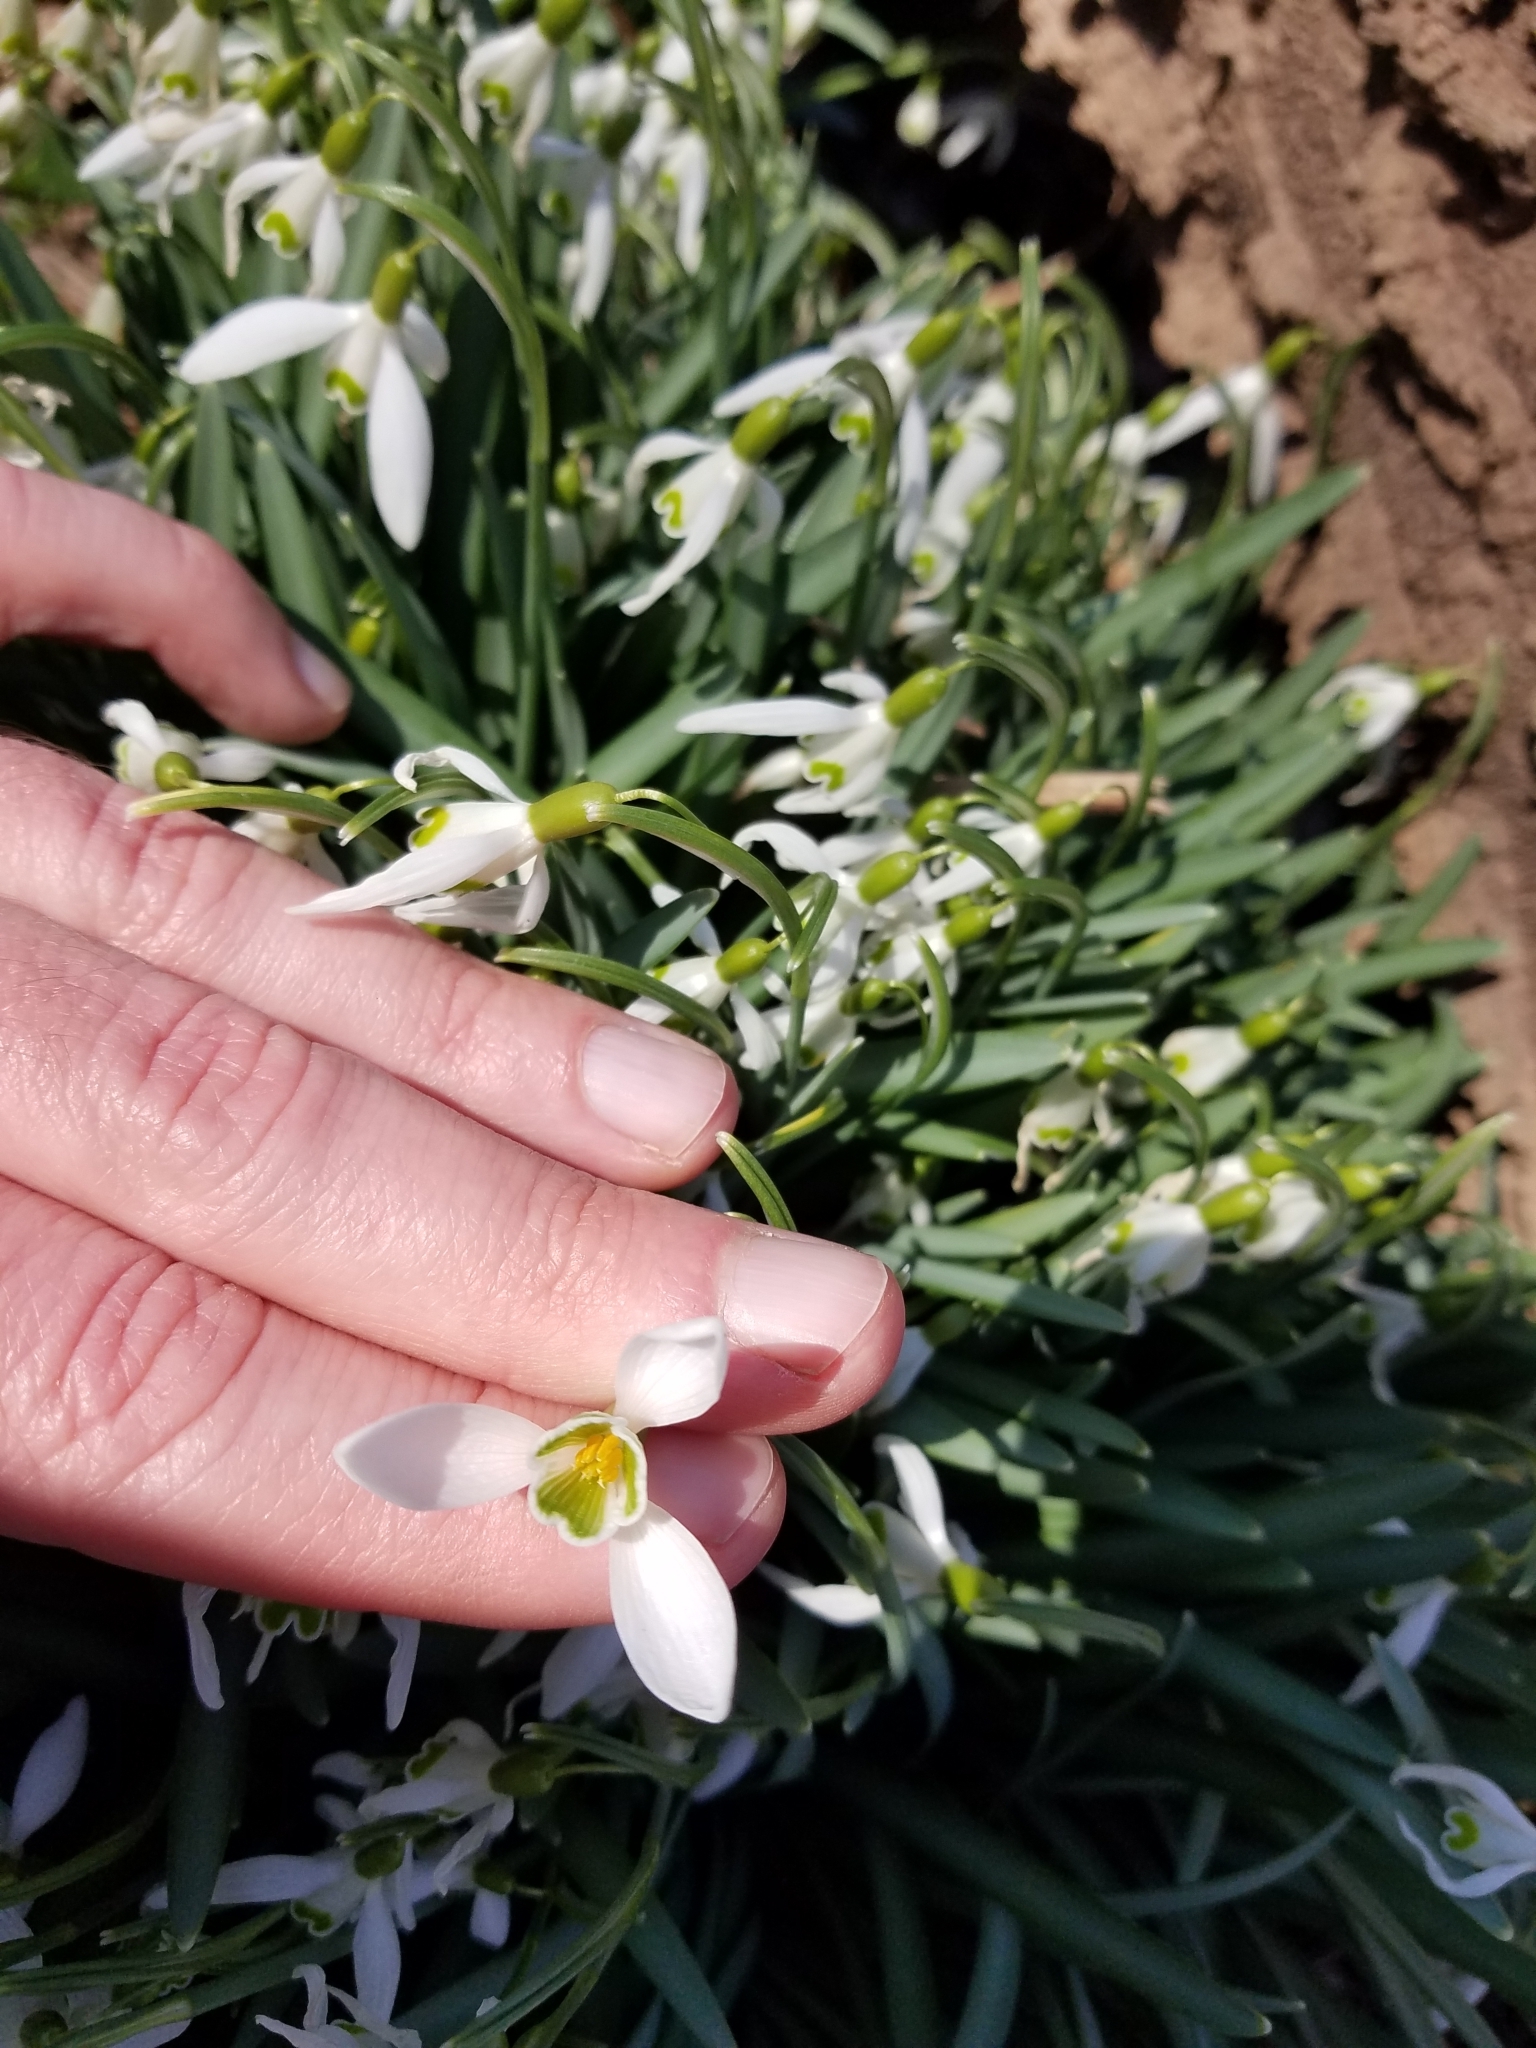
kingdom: Plantae
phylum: Tracheophyta
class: Liliopsida
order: Asparagales
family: Amaryllidaceae
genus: Galanthus
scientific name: Galanthus nivalis
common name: Snowdrop
